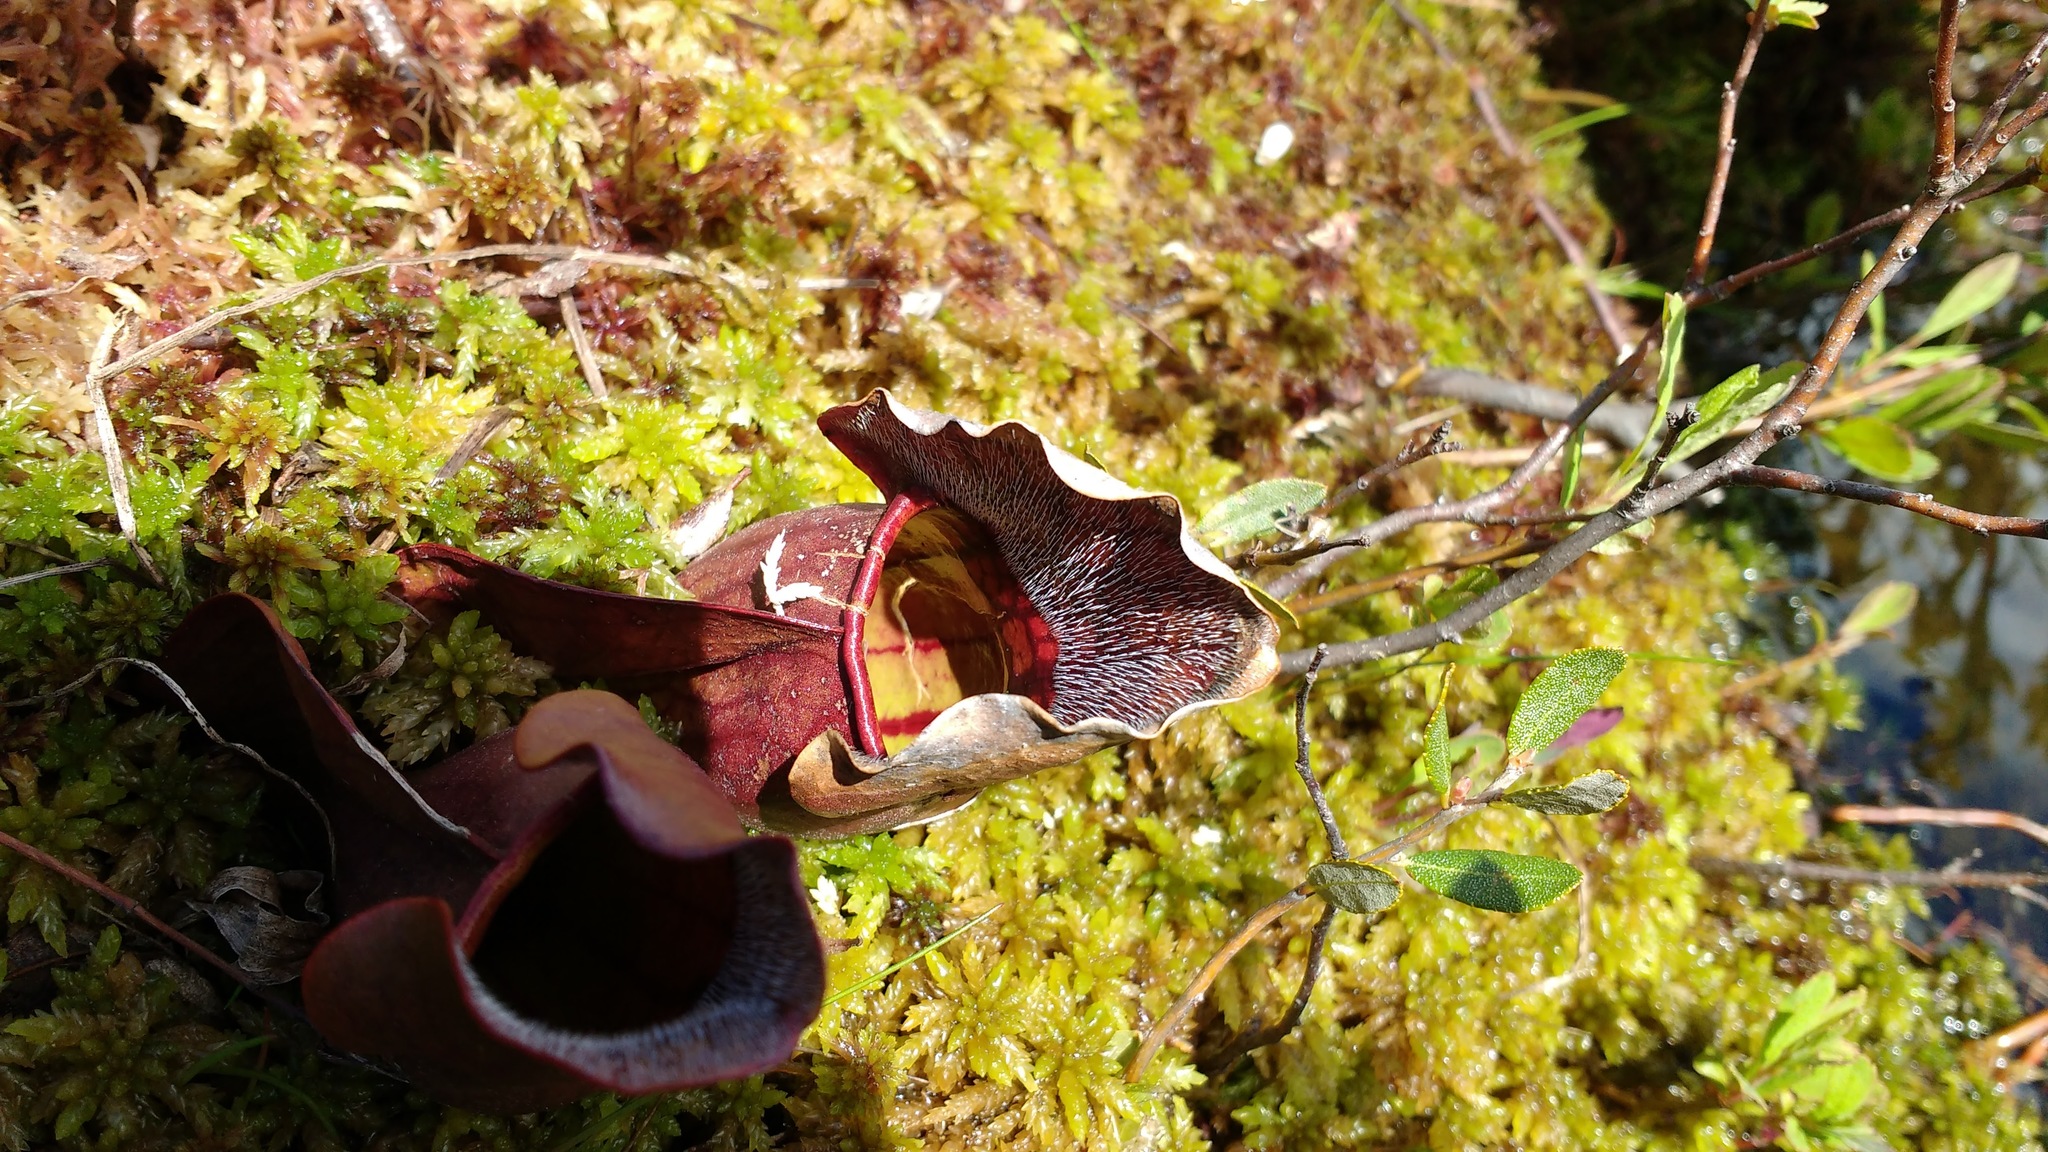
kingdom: Plantae
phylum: Tracheophyta
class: Magnoliopsida
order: Ericales
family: Sarraceniaceae
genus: Sarracenia
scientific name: Sarracenia purpurea
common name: Pitcherplant
